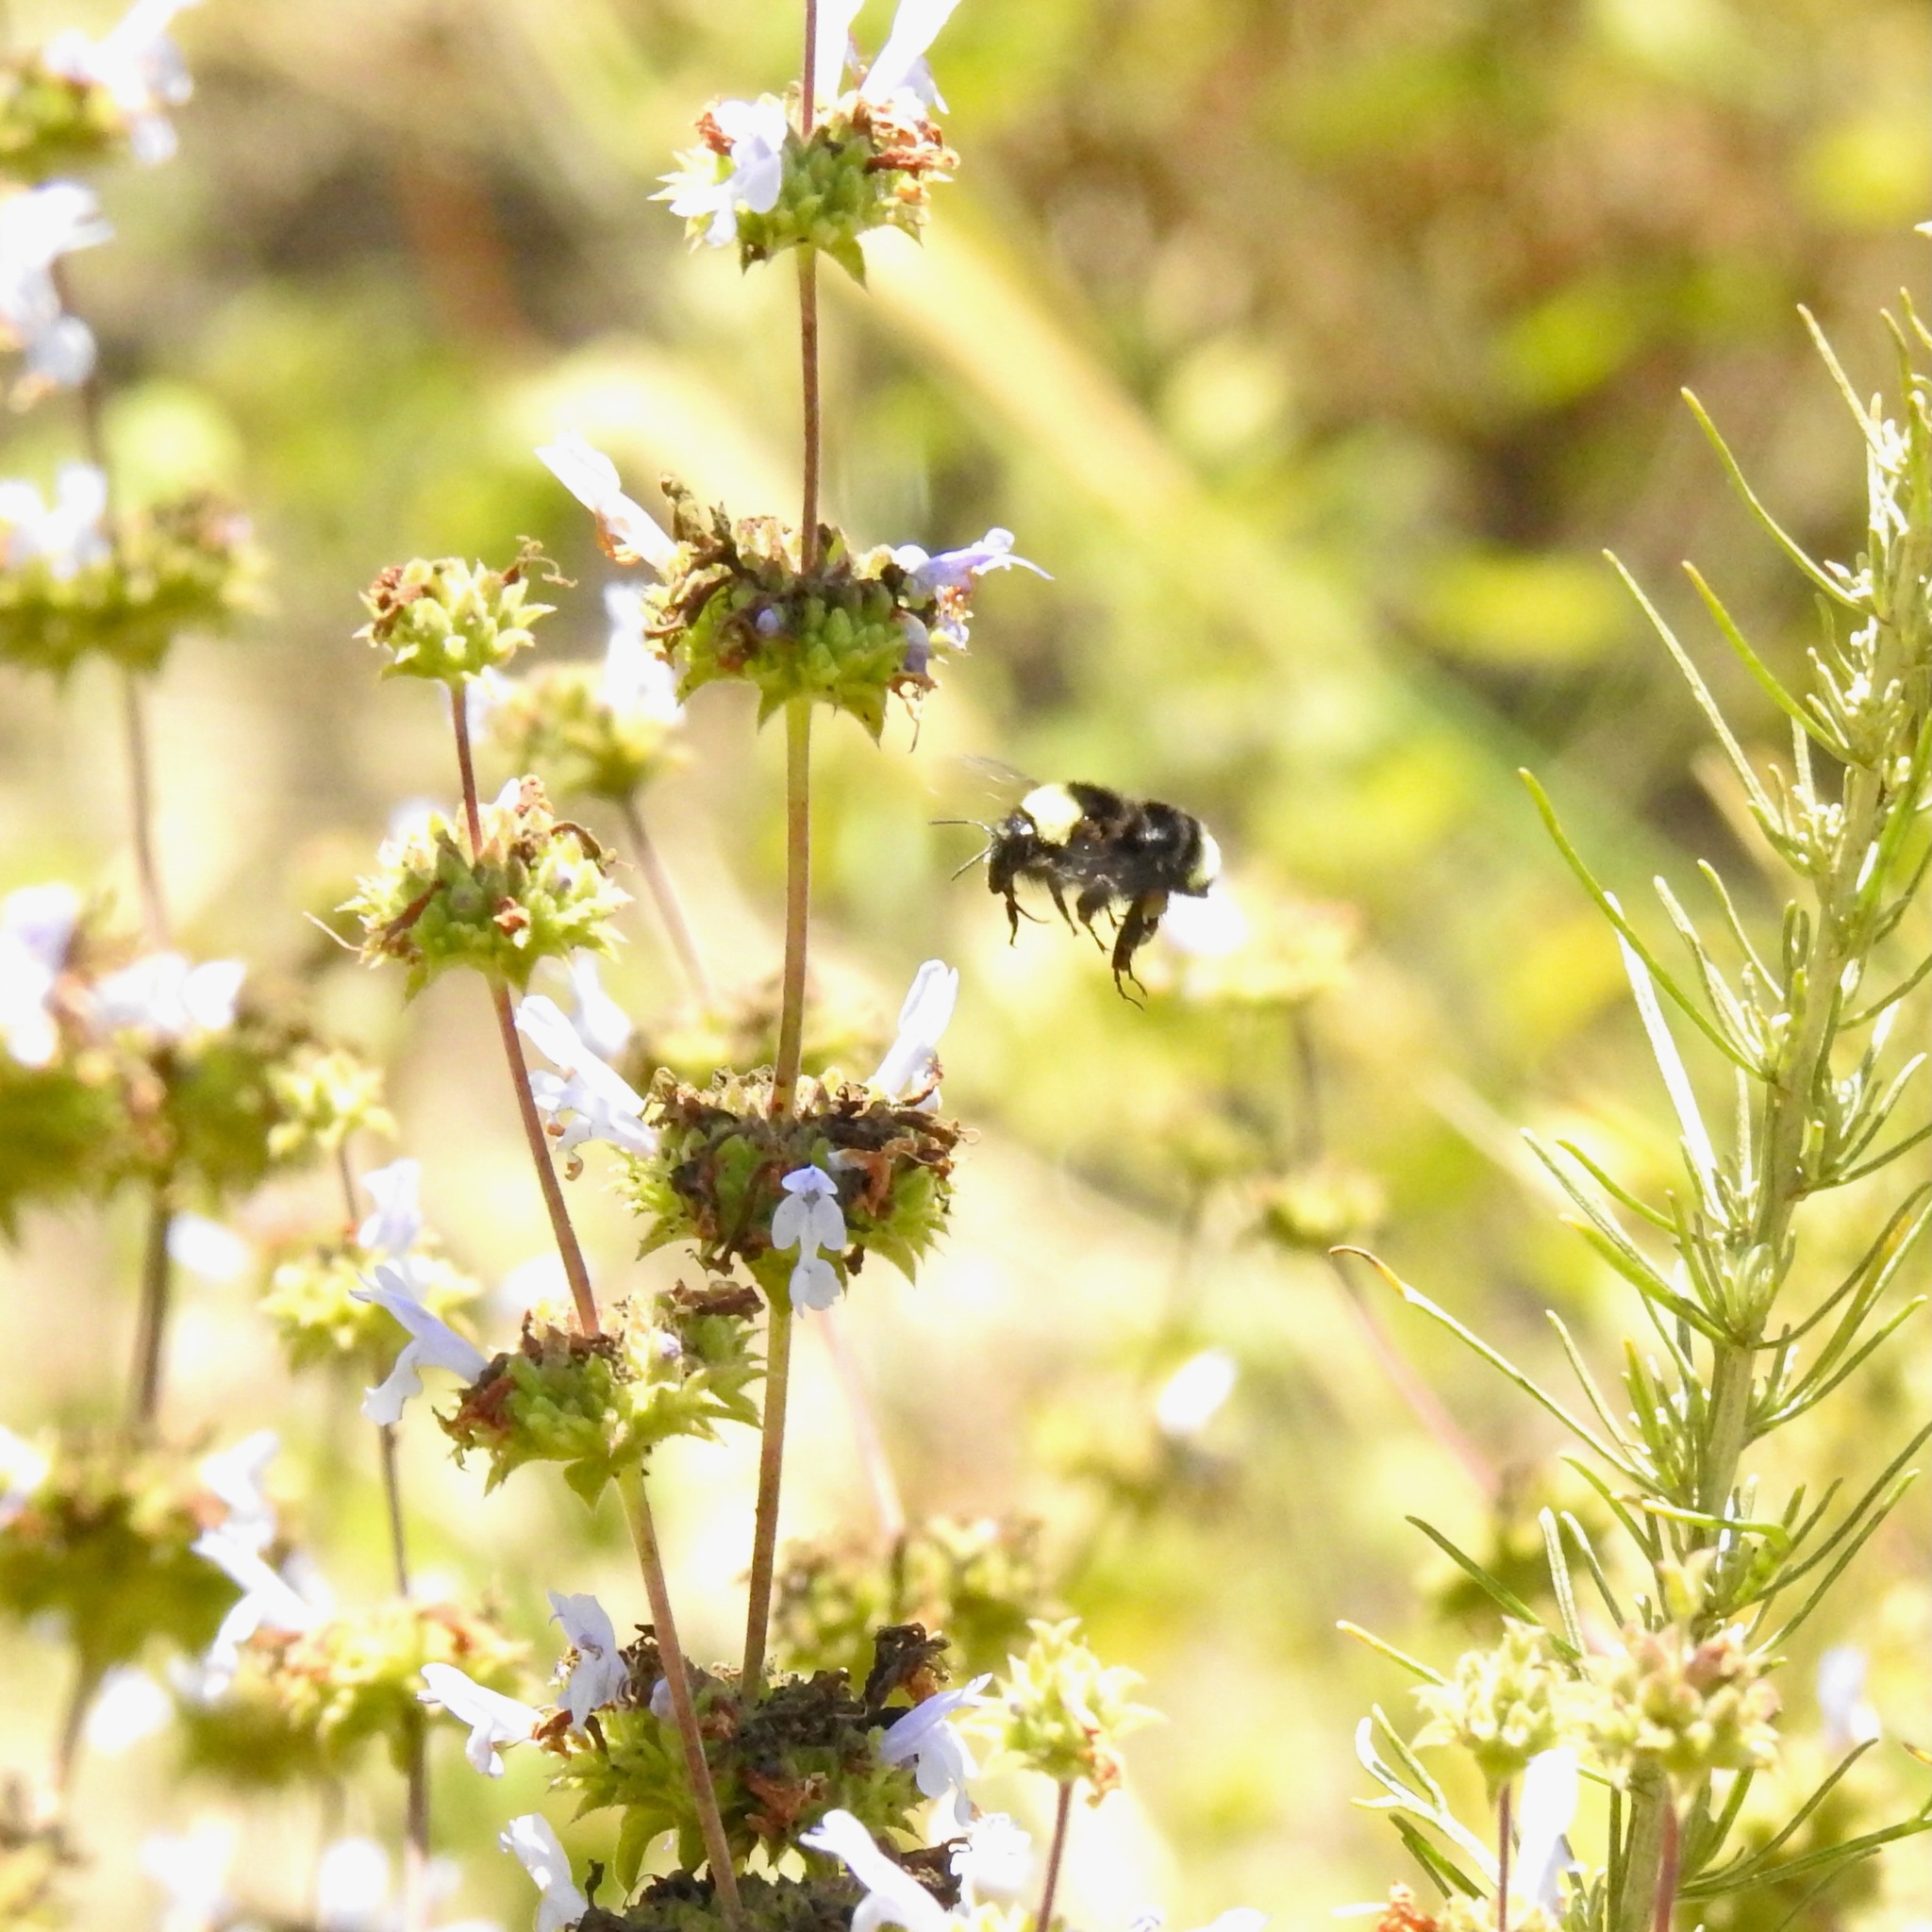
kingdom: Animalia
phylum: Arthropoda
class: Insecta
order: Hymenoptera
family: Apidae
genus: Bombus
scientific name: Bombus californicus
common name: California bumble bee
